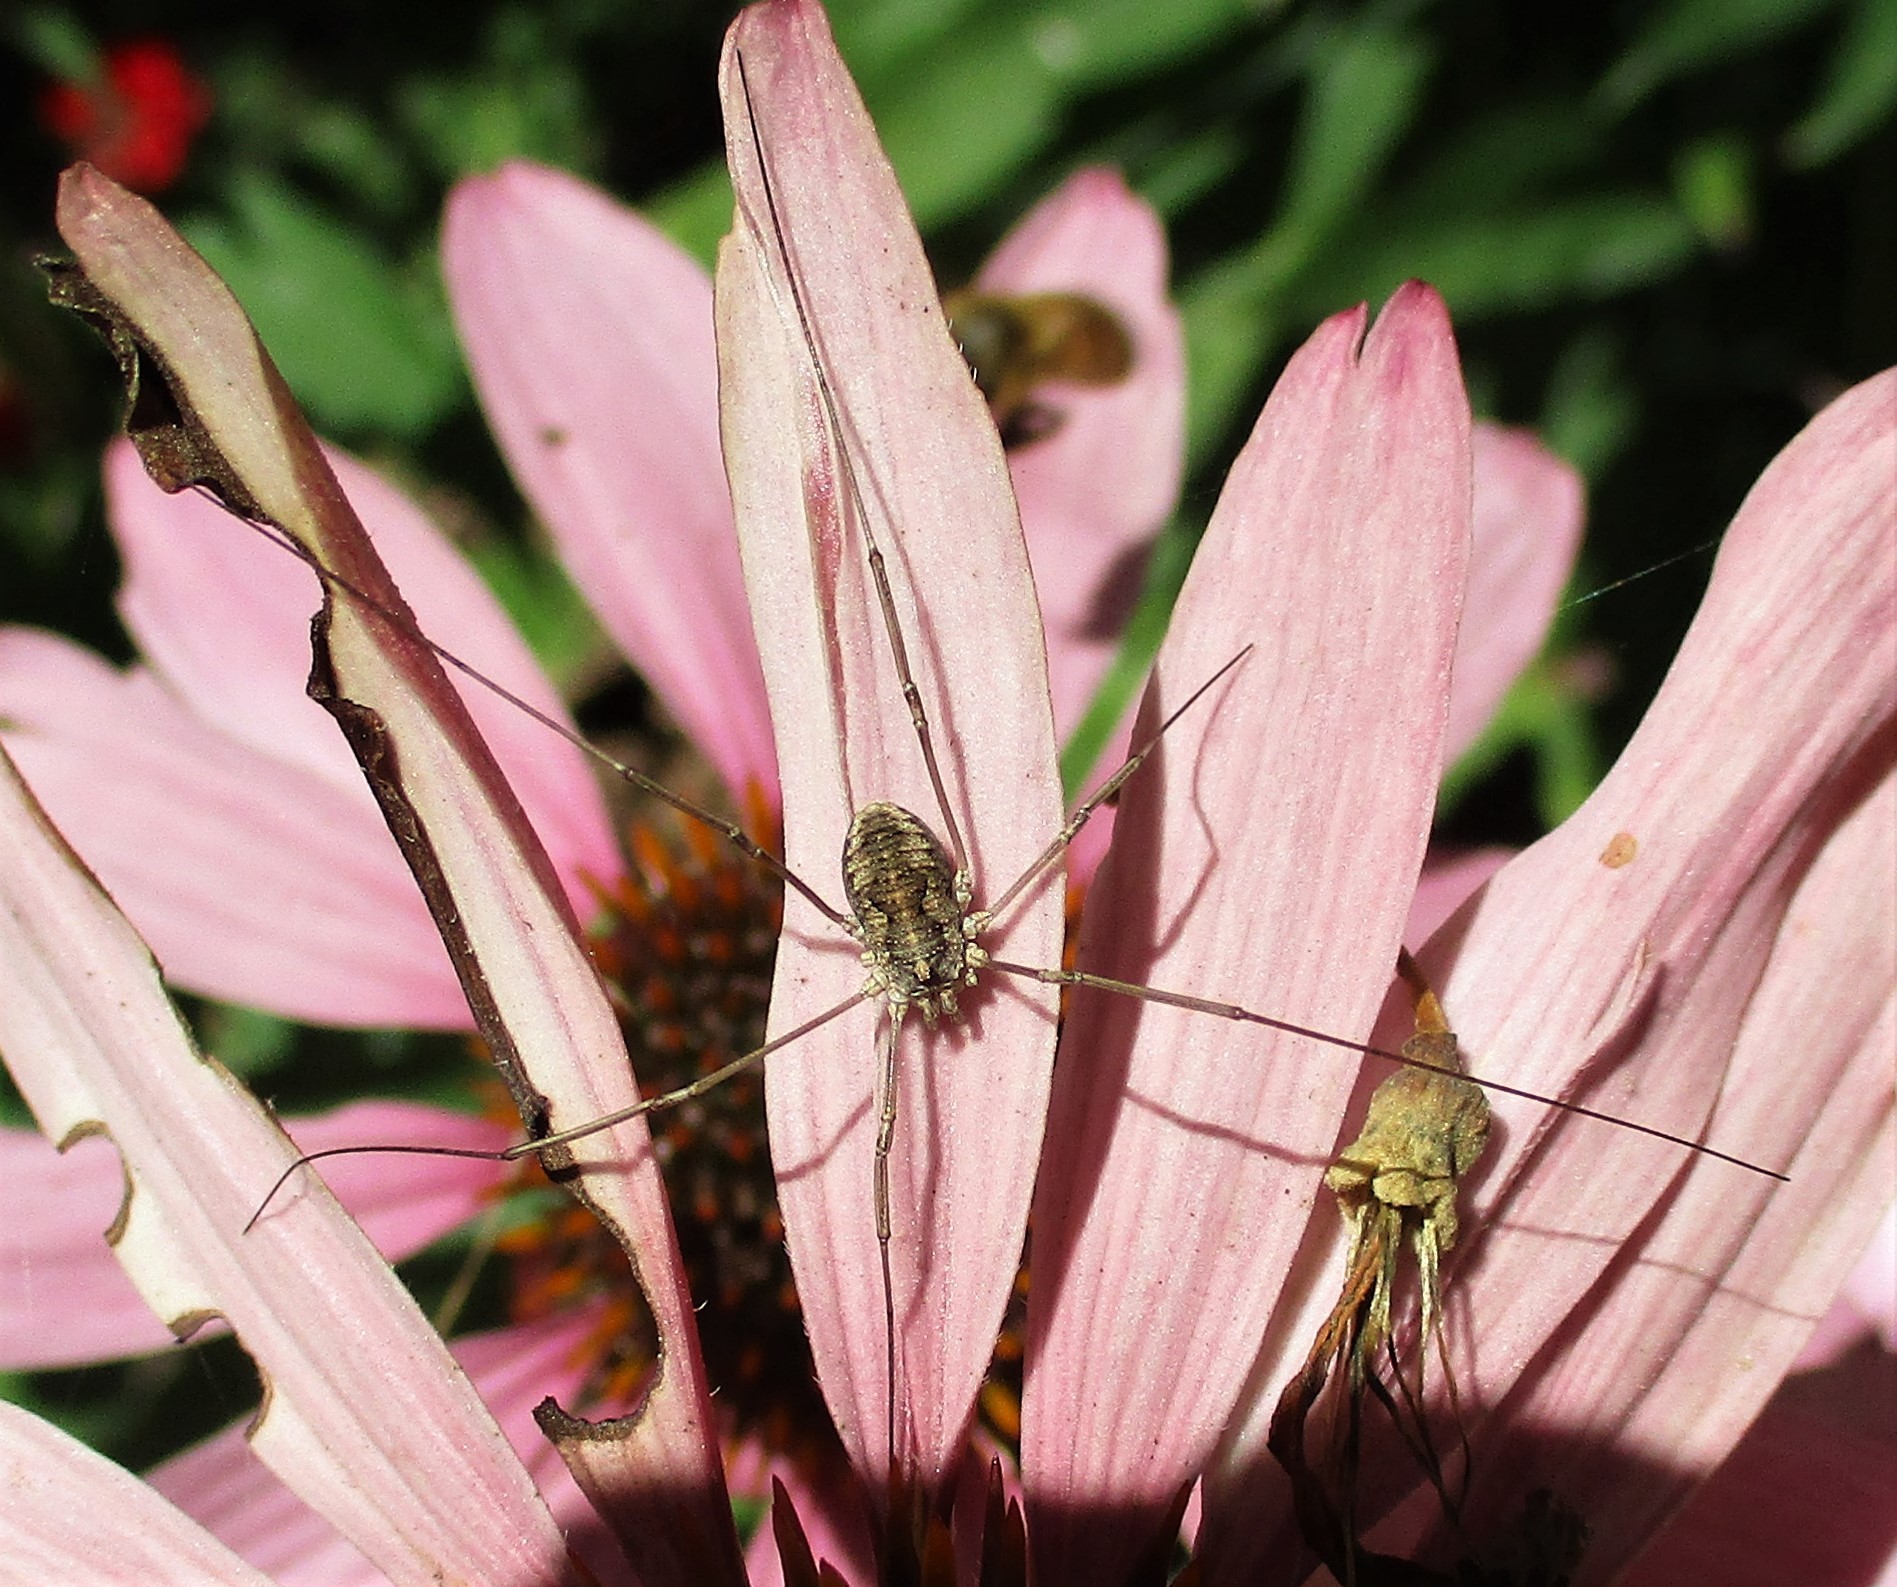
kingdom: Animalia
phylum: Arthropoda
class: Arachnida
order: Opiliones
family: Phalangiidae
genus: Phalangium
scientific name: Phalangium opilio
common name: Daddy longleg
